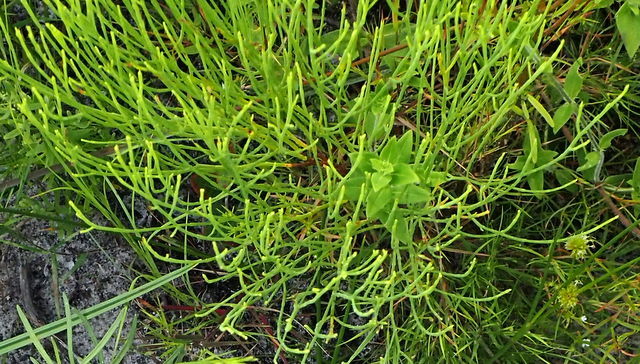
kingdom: Plantae
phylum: Tracheophyta
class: Magnoliopsida
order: Malpighiales
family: Hypericaceae
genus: Hypericum
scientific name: Hypericum gentianoides
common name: Gentian-leaved st. john's-wort
